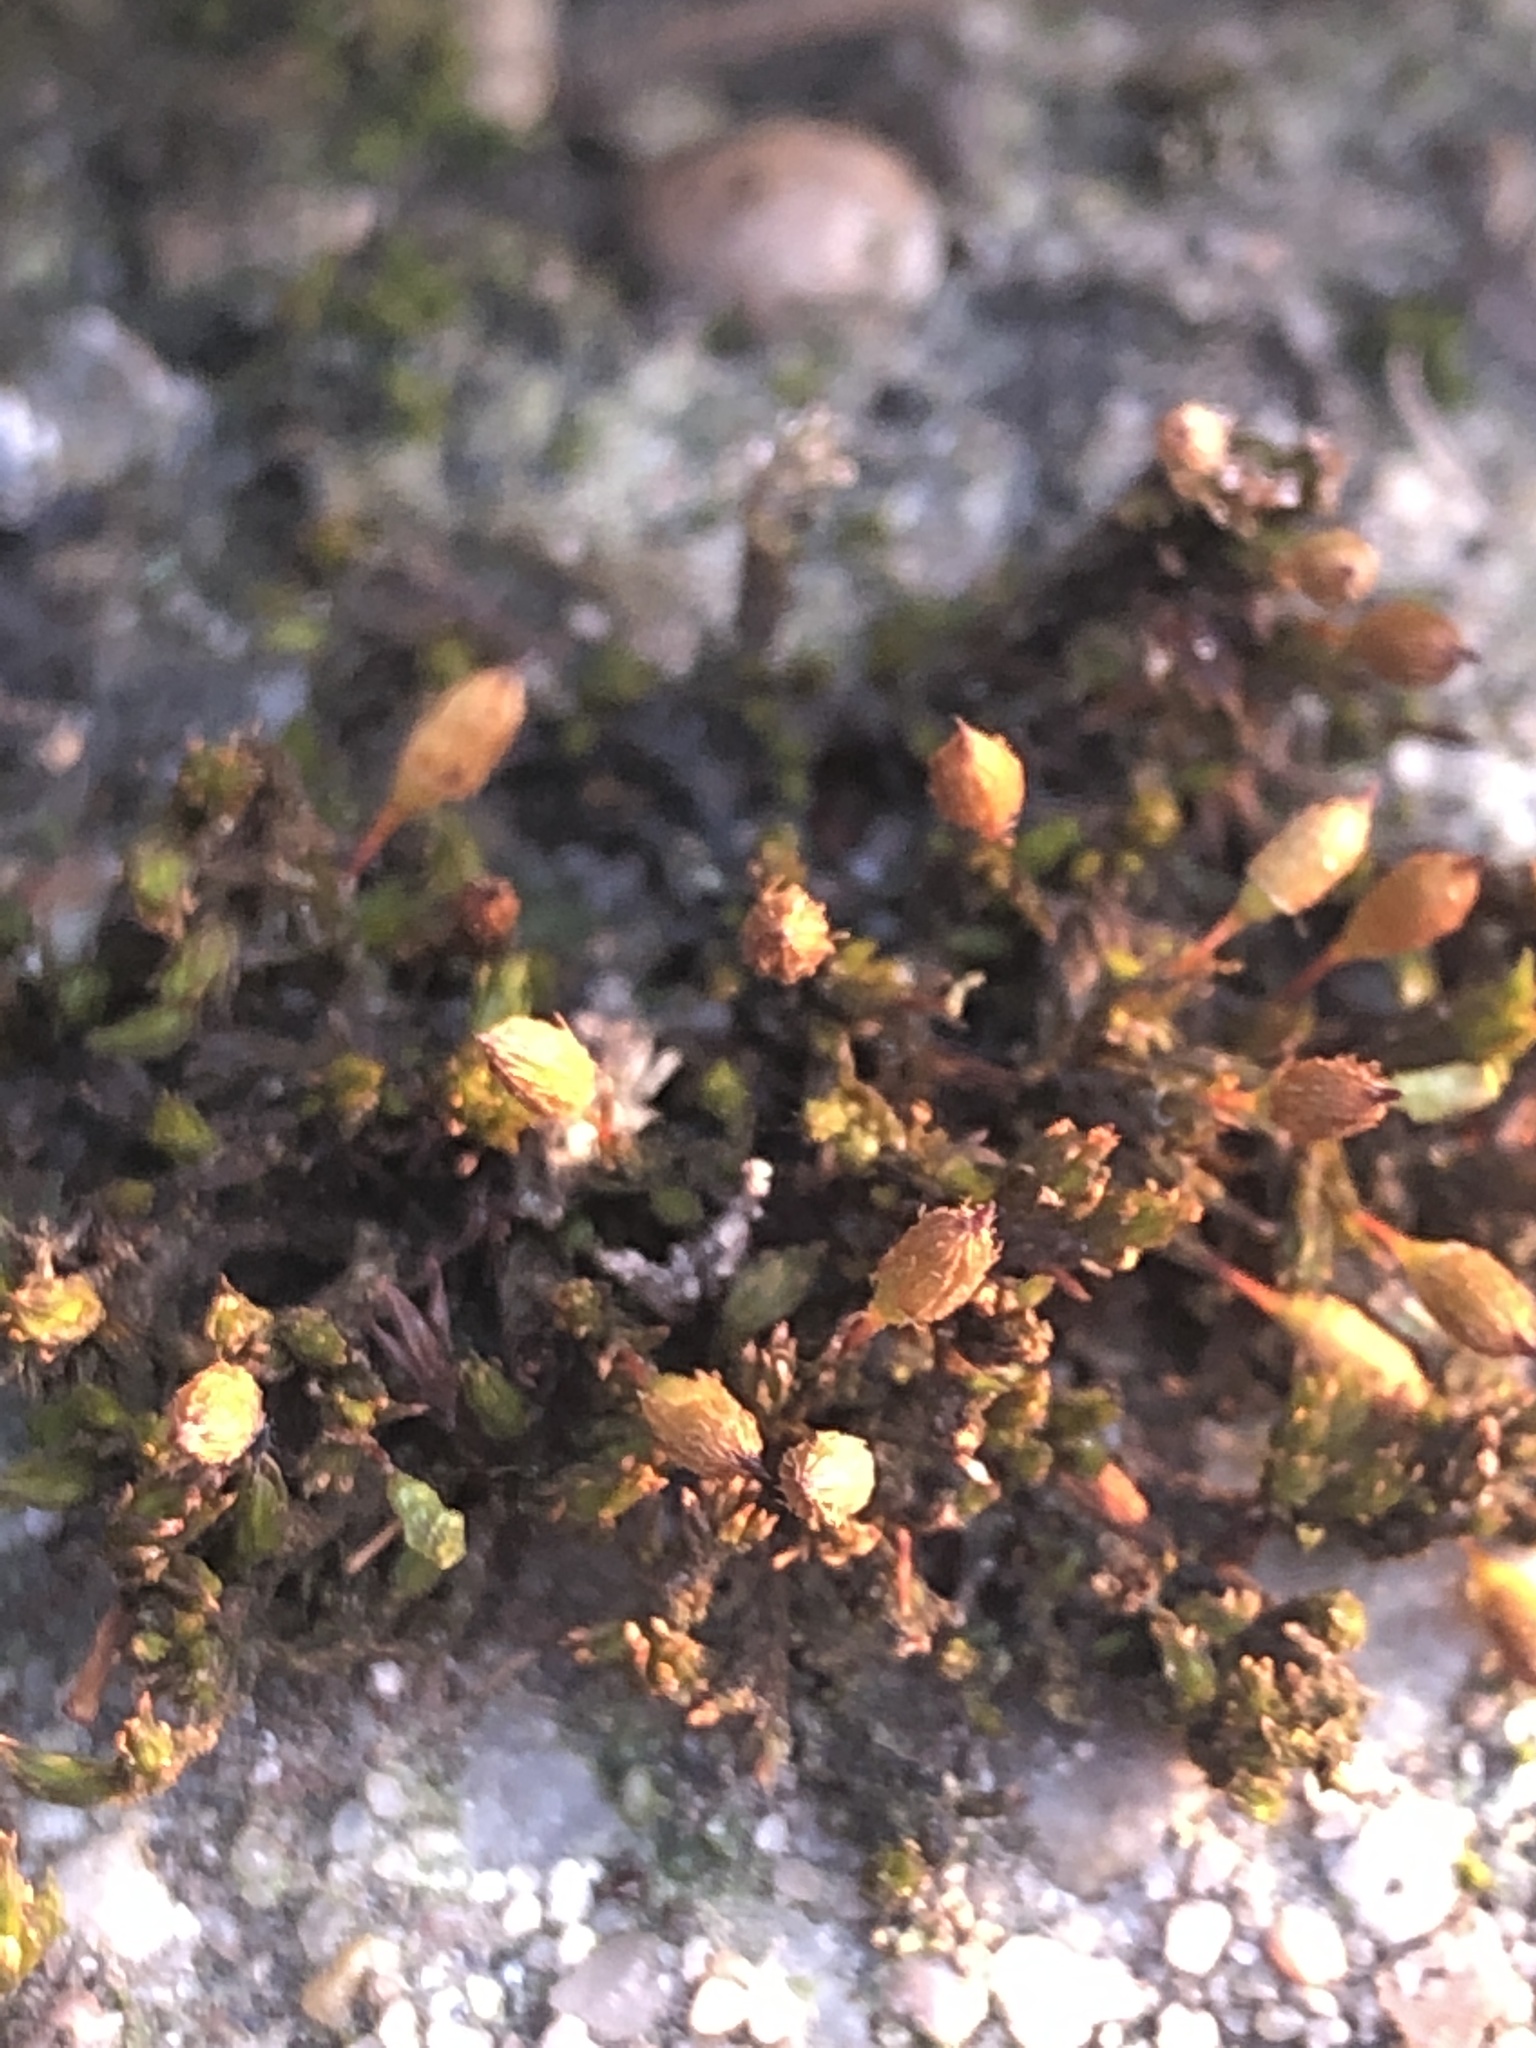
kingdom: Plantae
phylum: Bryophyta
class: Bryopsida
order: Orthotrichales
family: Orthotrichaceae
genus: Orthotrichum
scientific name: Orthotrichum anomalum
